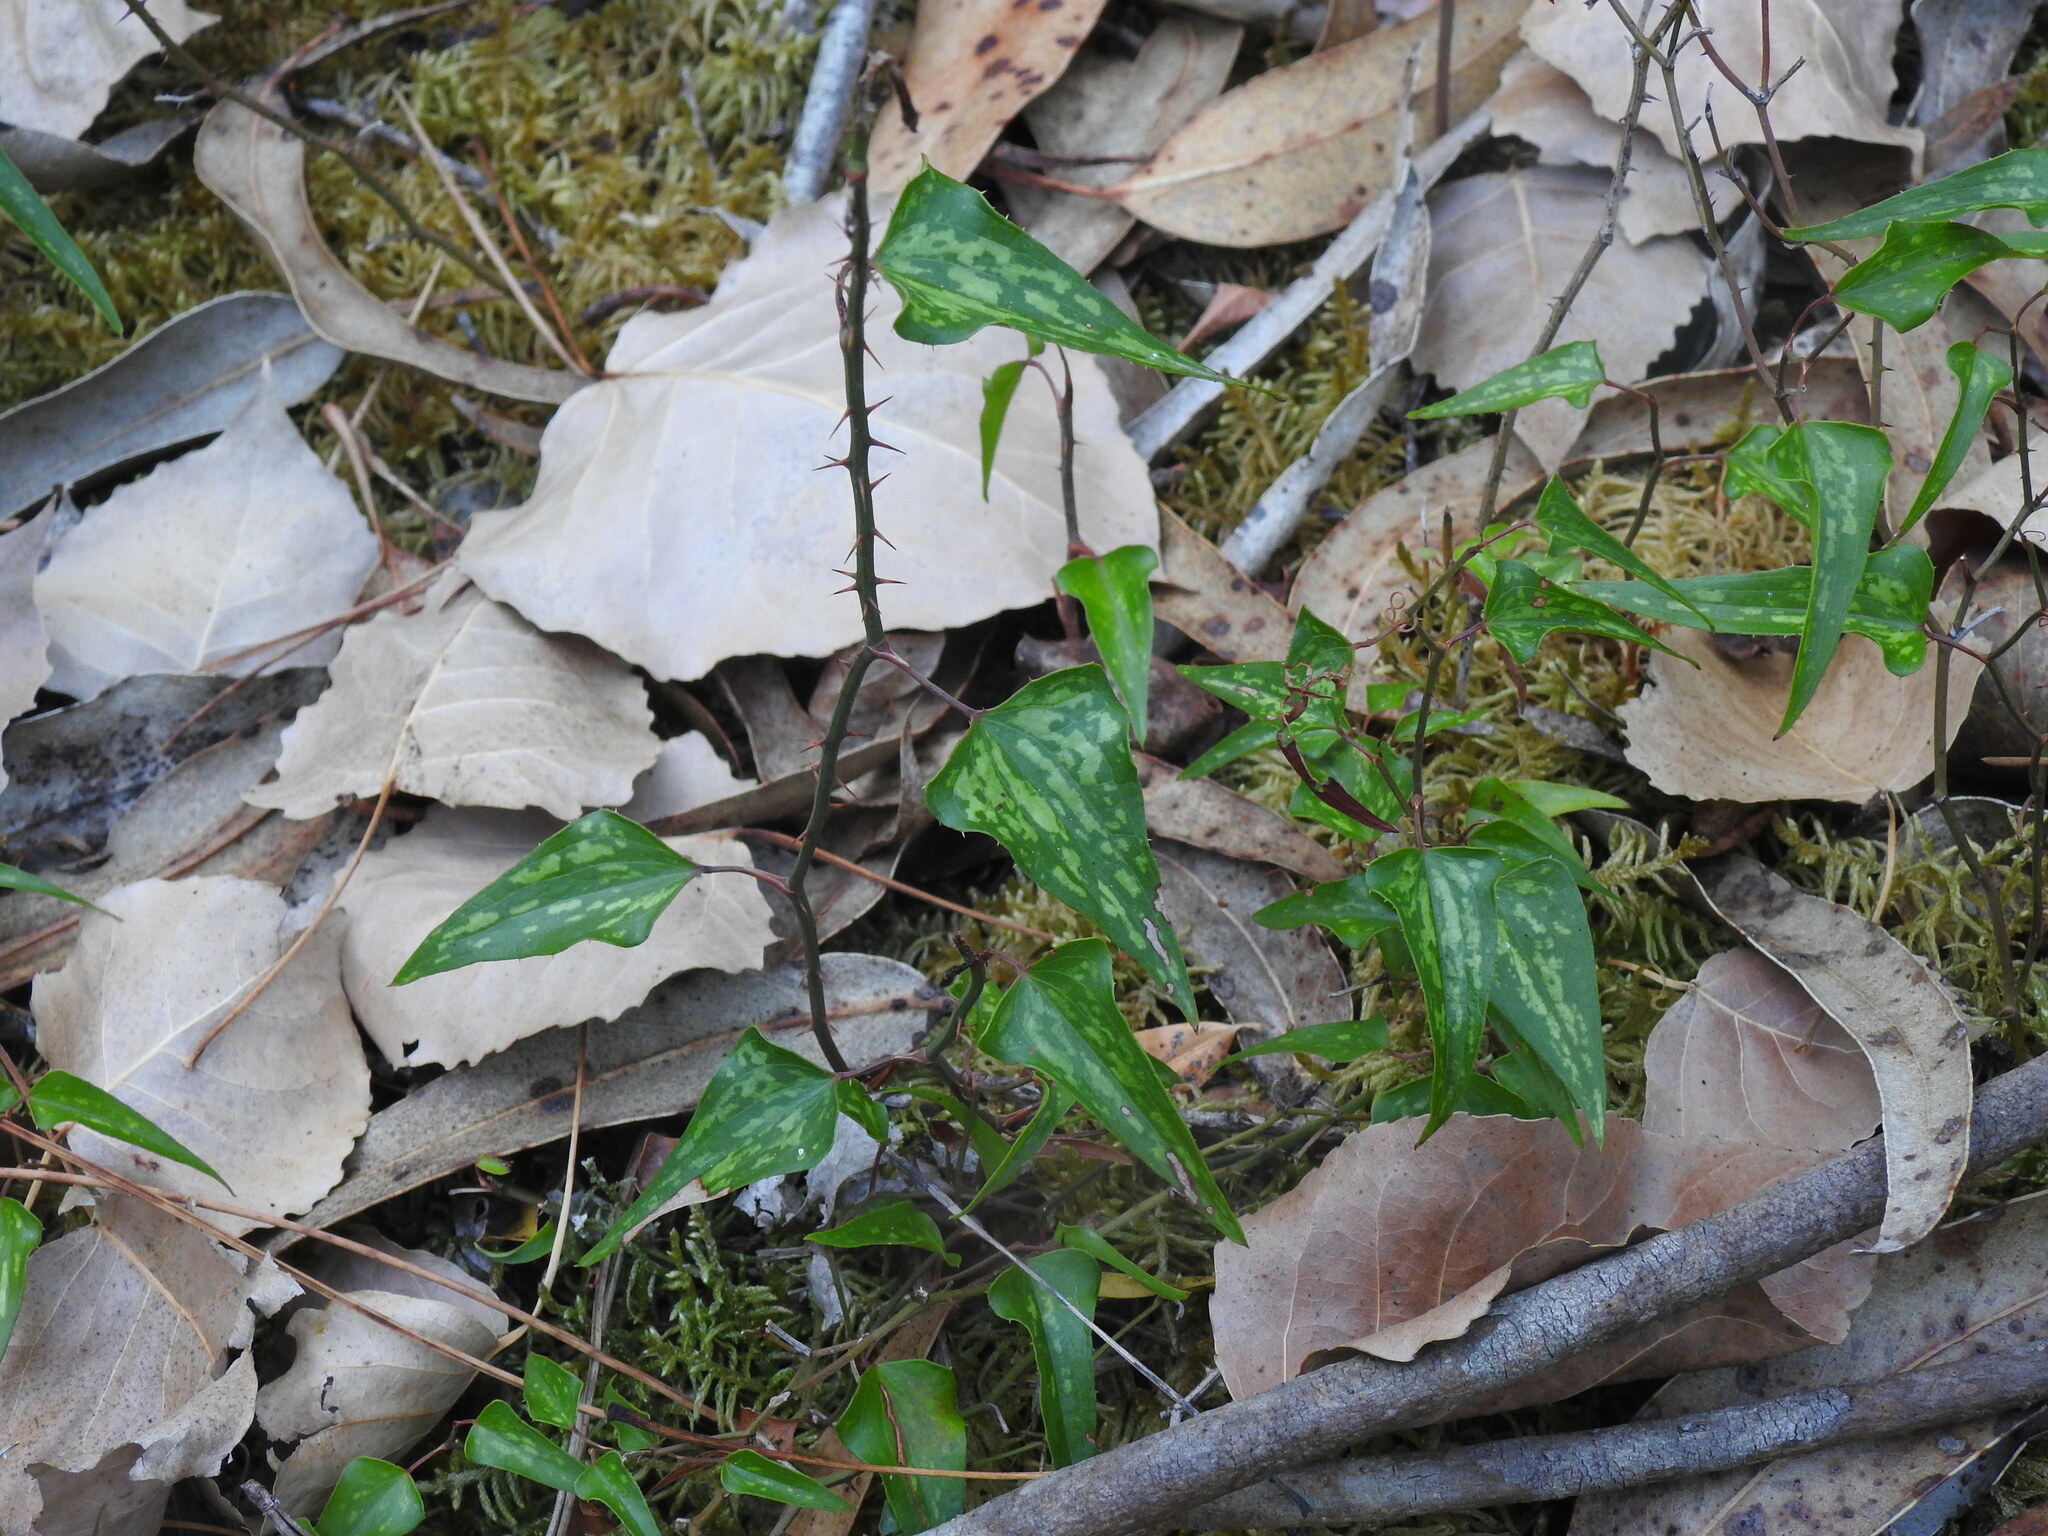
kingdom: Plantae
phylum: Tracheophyta
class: Liliopsida
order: Liliales
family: Smilacaceae
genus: Smilax
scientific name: Smilax aspera
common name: Common smilax
